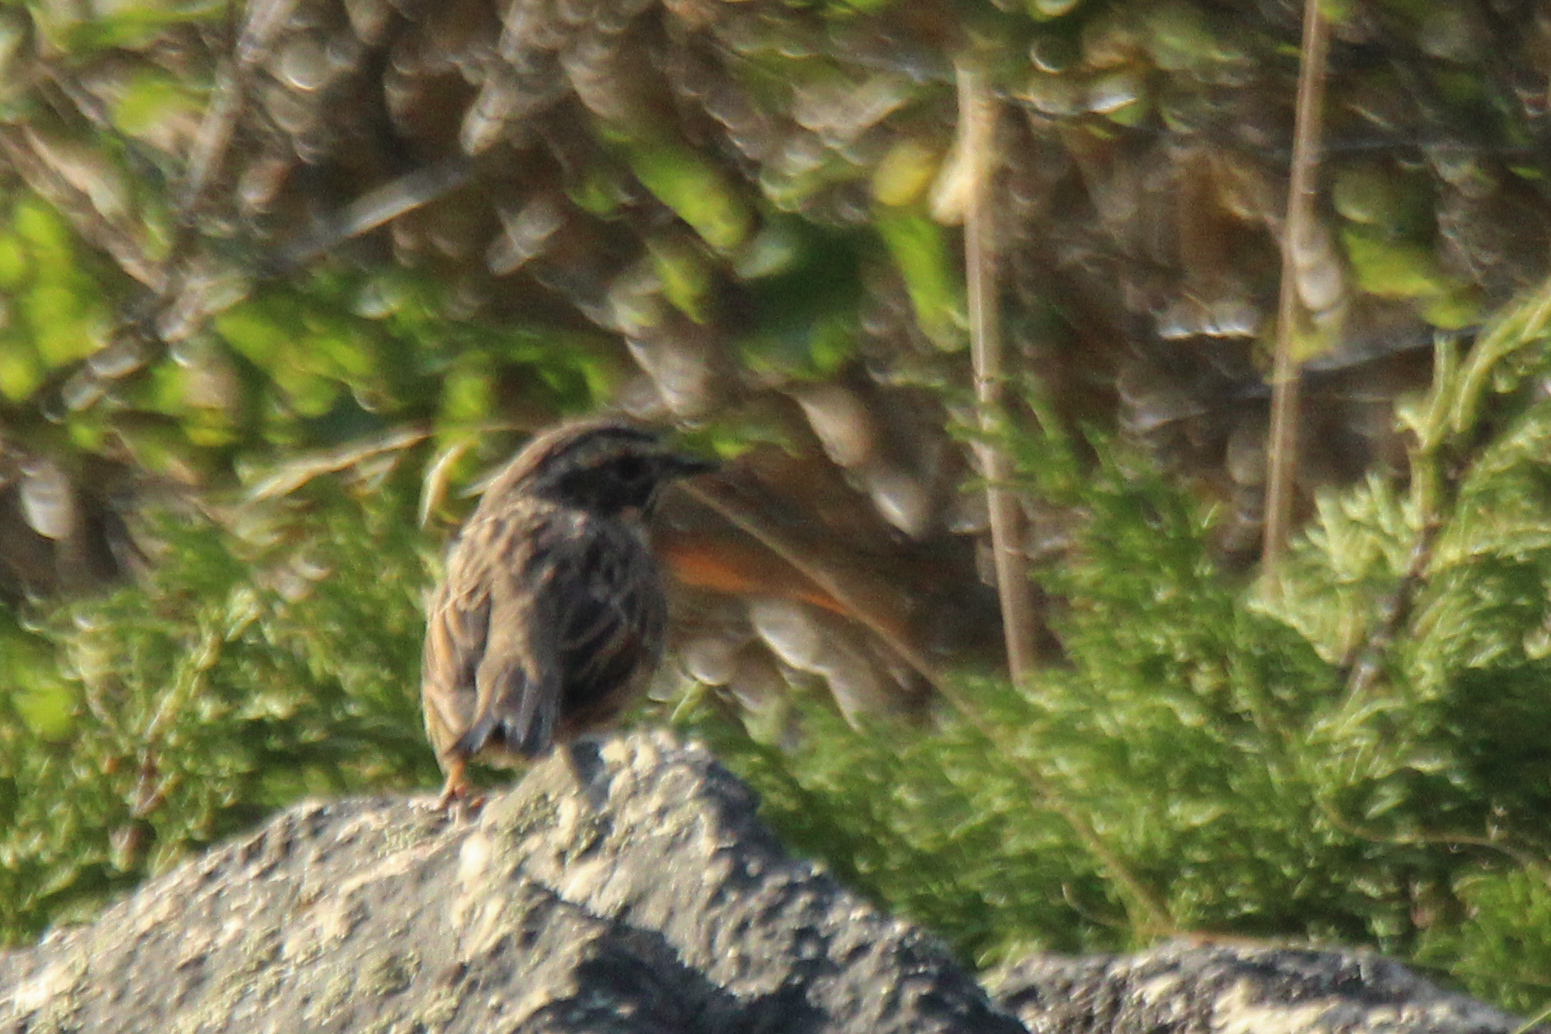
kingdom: Animalia
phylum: Chordata
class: Aves
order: Passeriformes
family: Prunellidae
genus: Prunella
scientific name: Prunella fulvescens
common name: Brown accentor
